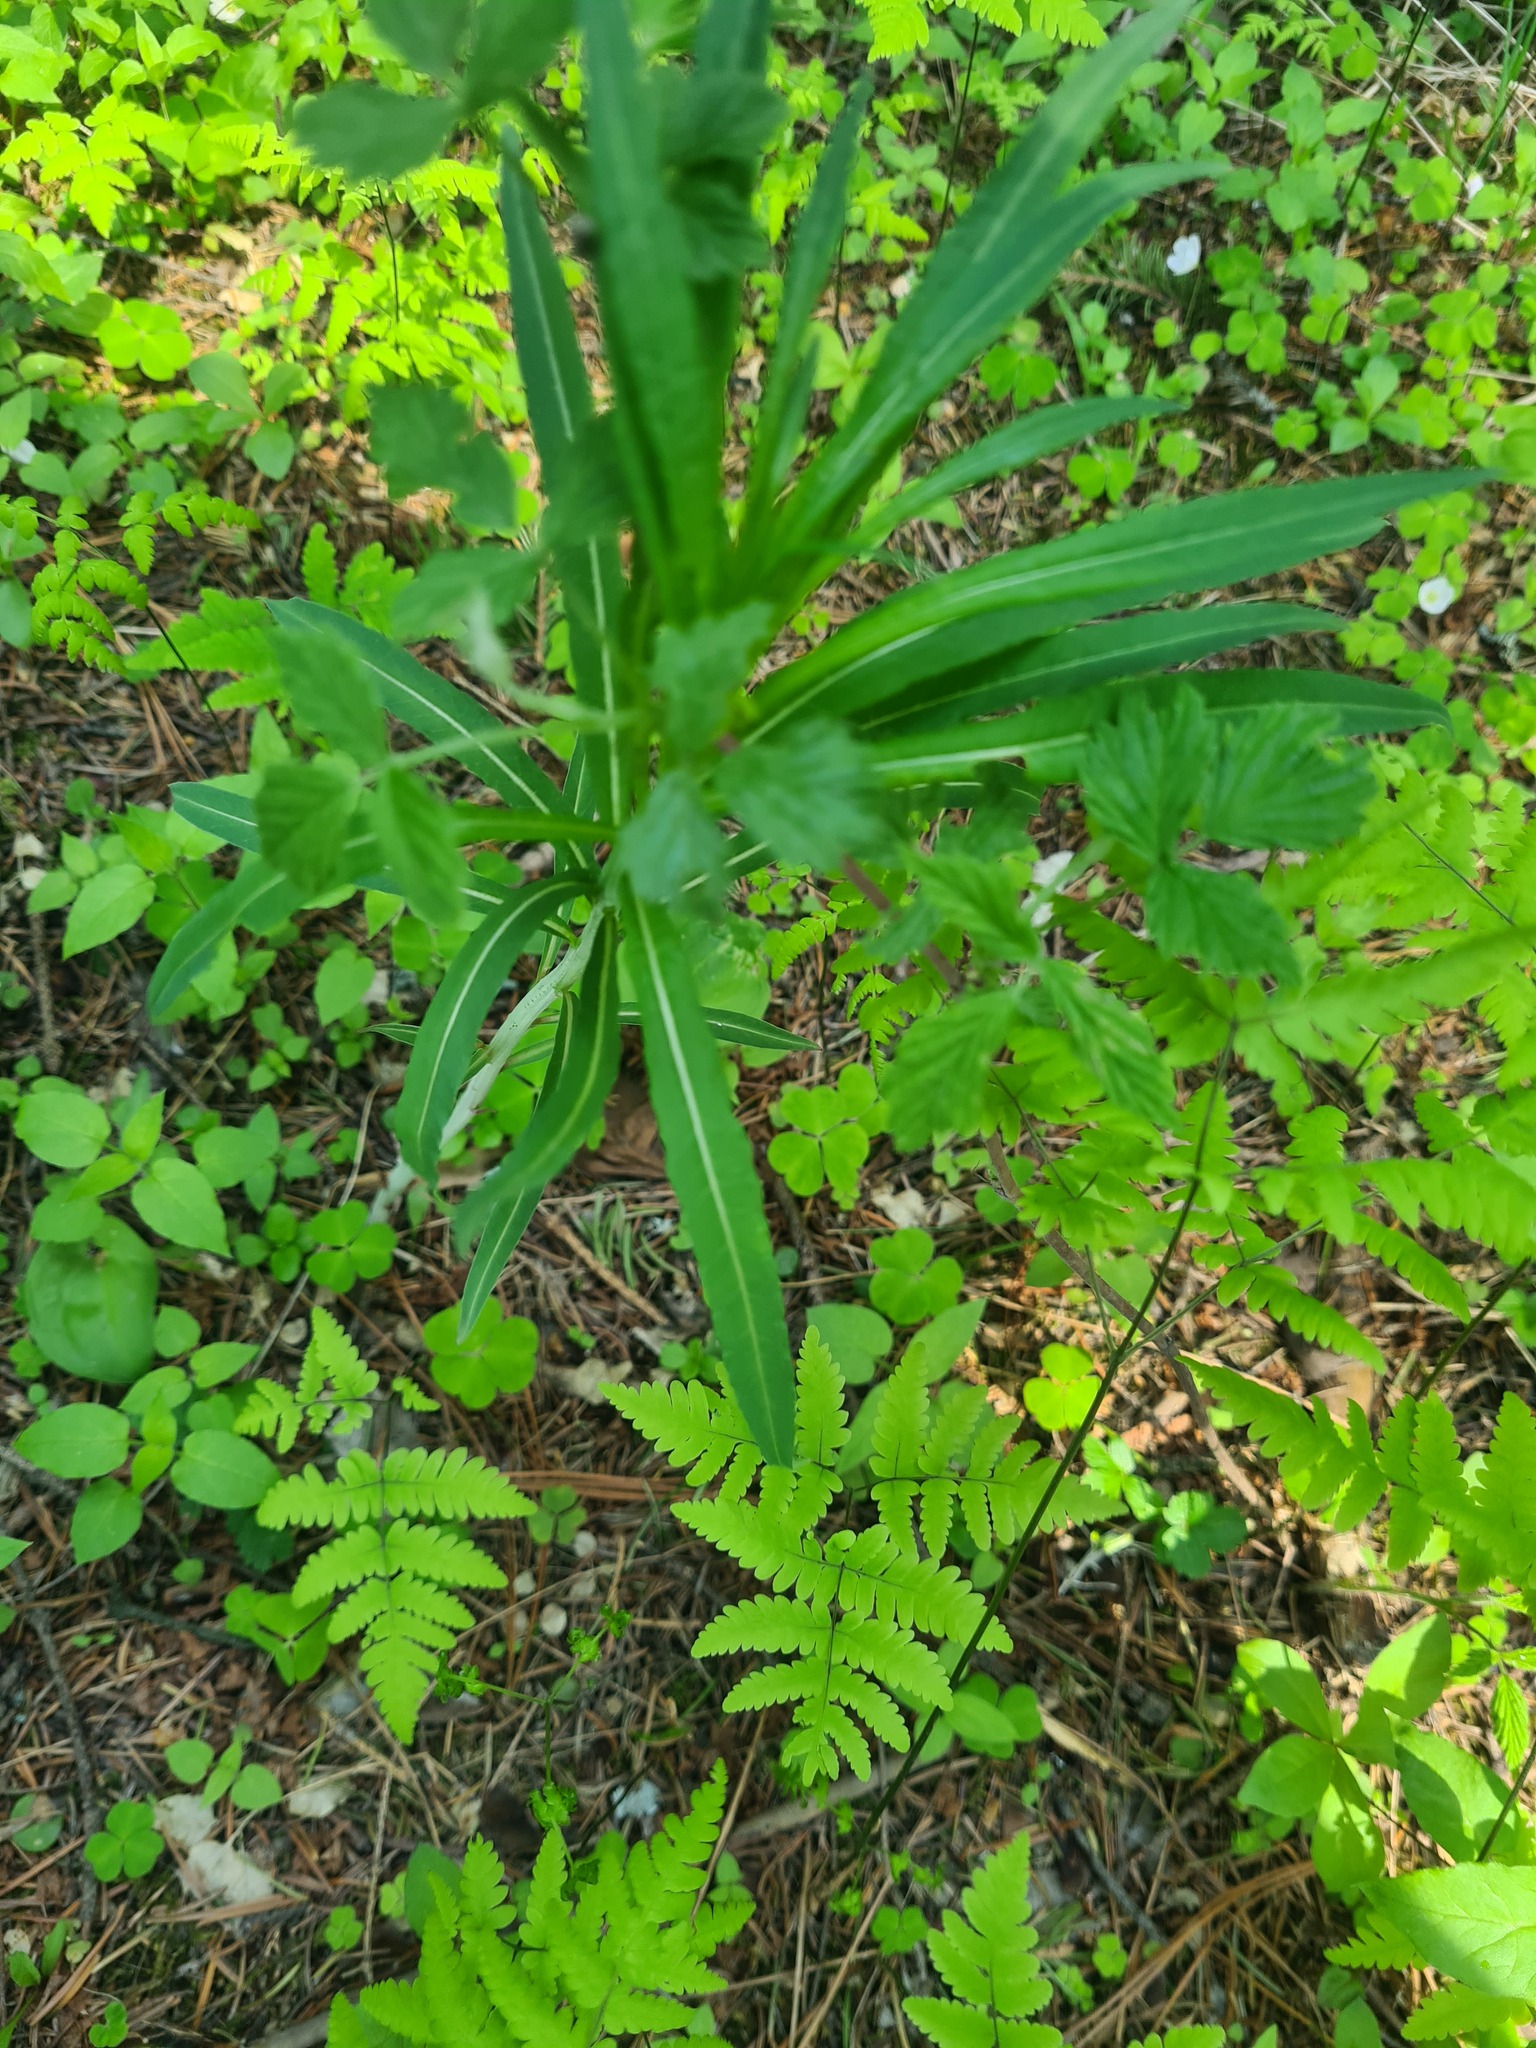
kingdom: Plantae
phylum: Tracheophyta
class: Magnoliopsida
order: Myrtales
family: Onagraceae
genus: Chamaenerion
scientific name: Chamaenerion angustifolium
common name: Fireweed
